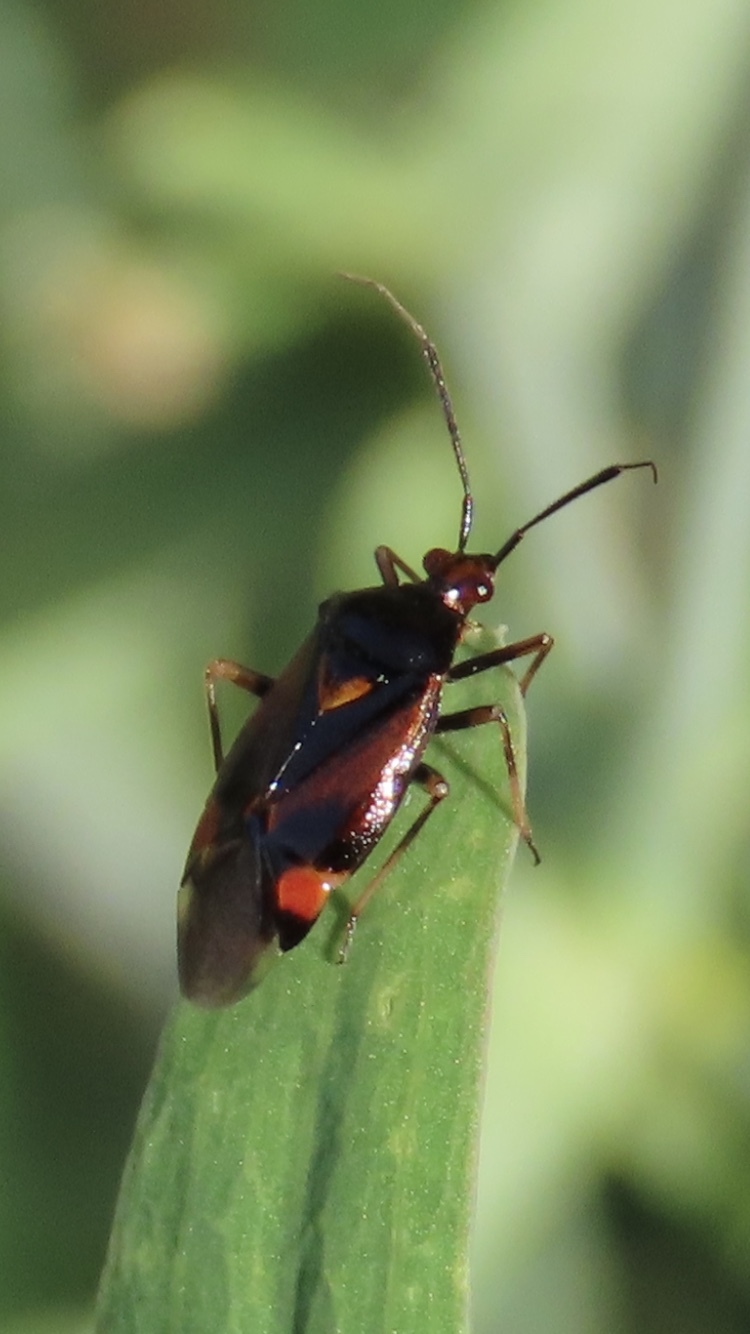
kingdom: Animalia
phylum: Arthropoda
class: Insecta
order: Hemiptera
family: Miridae
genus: Deraeocoris
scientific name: Deraeocoris ruber
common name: Plant bug
